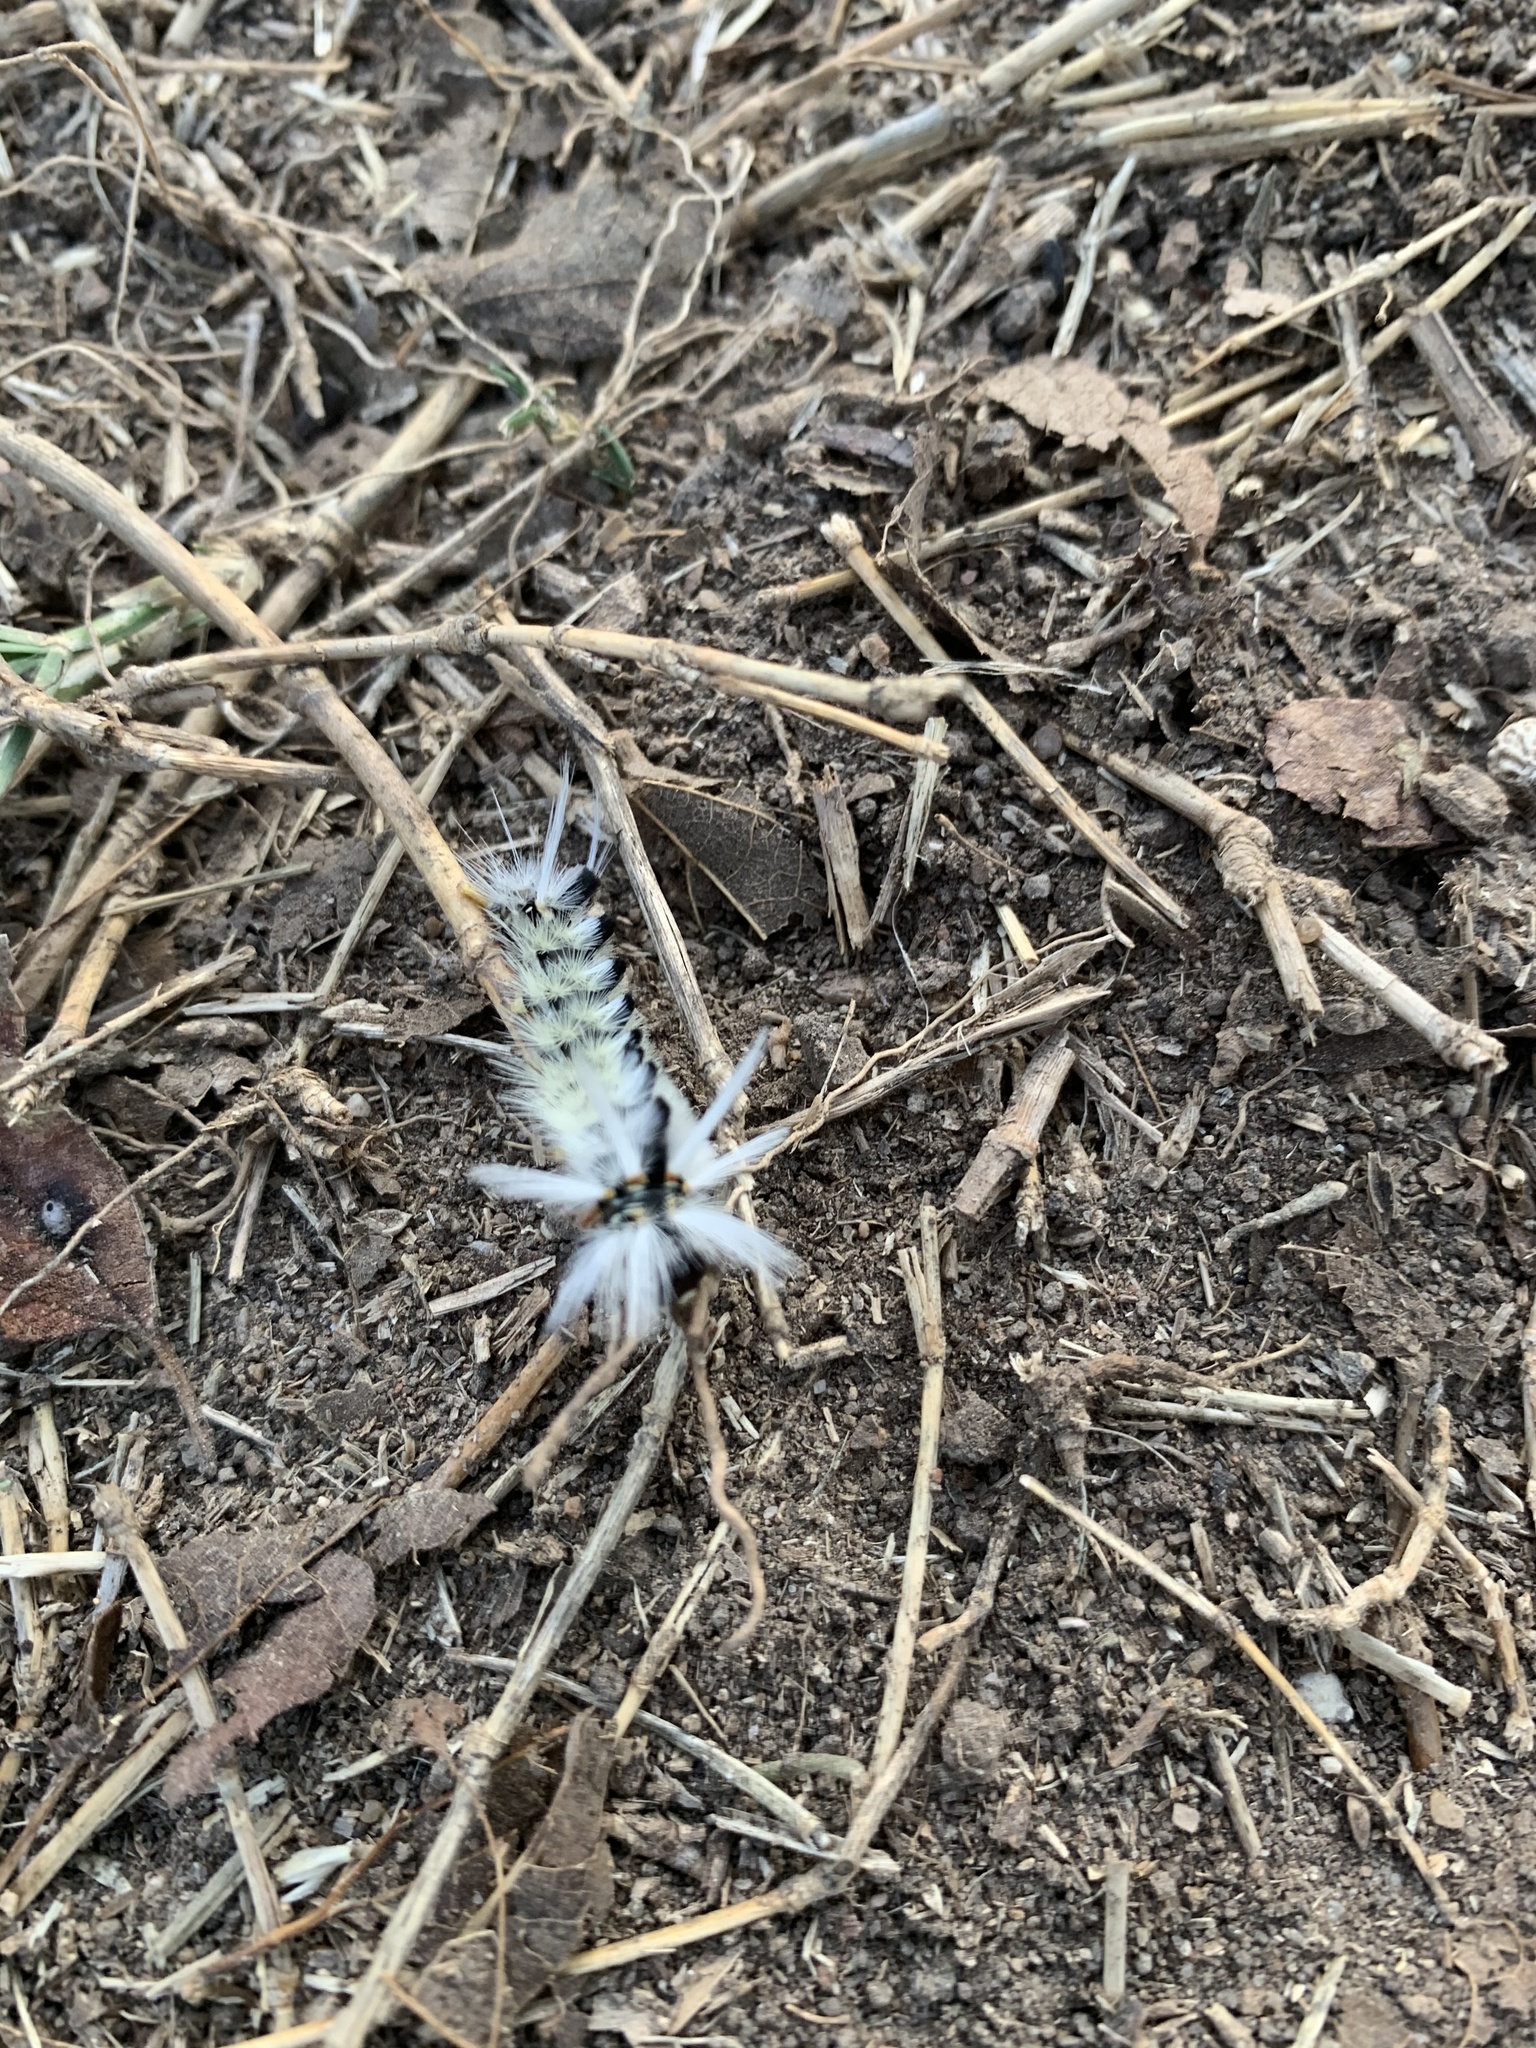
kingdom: Animalia
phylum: Arthropoda
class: Insecta
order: Lepidoptera
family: Erebidae
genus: Halysidota
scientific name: Halysidota schausi
